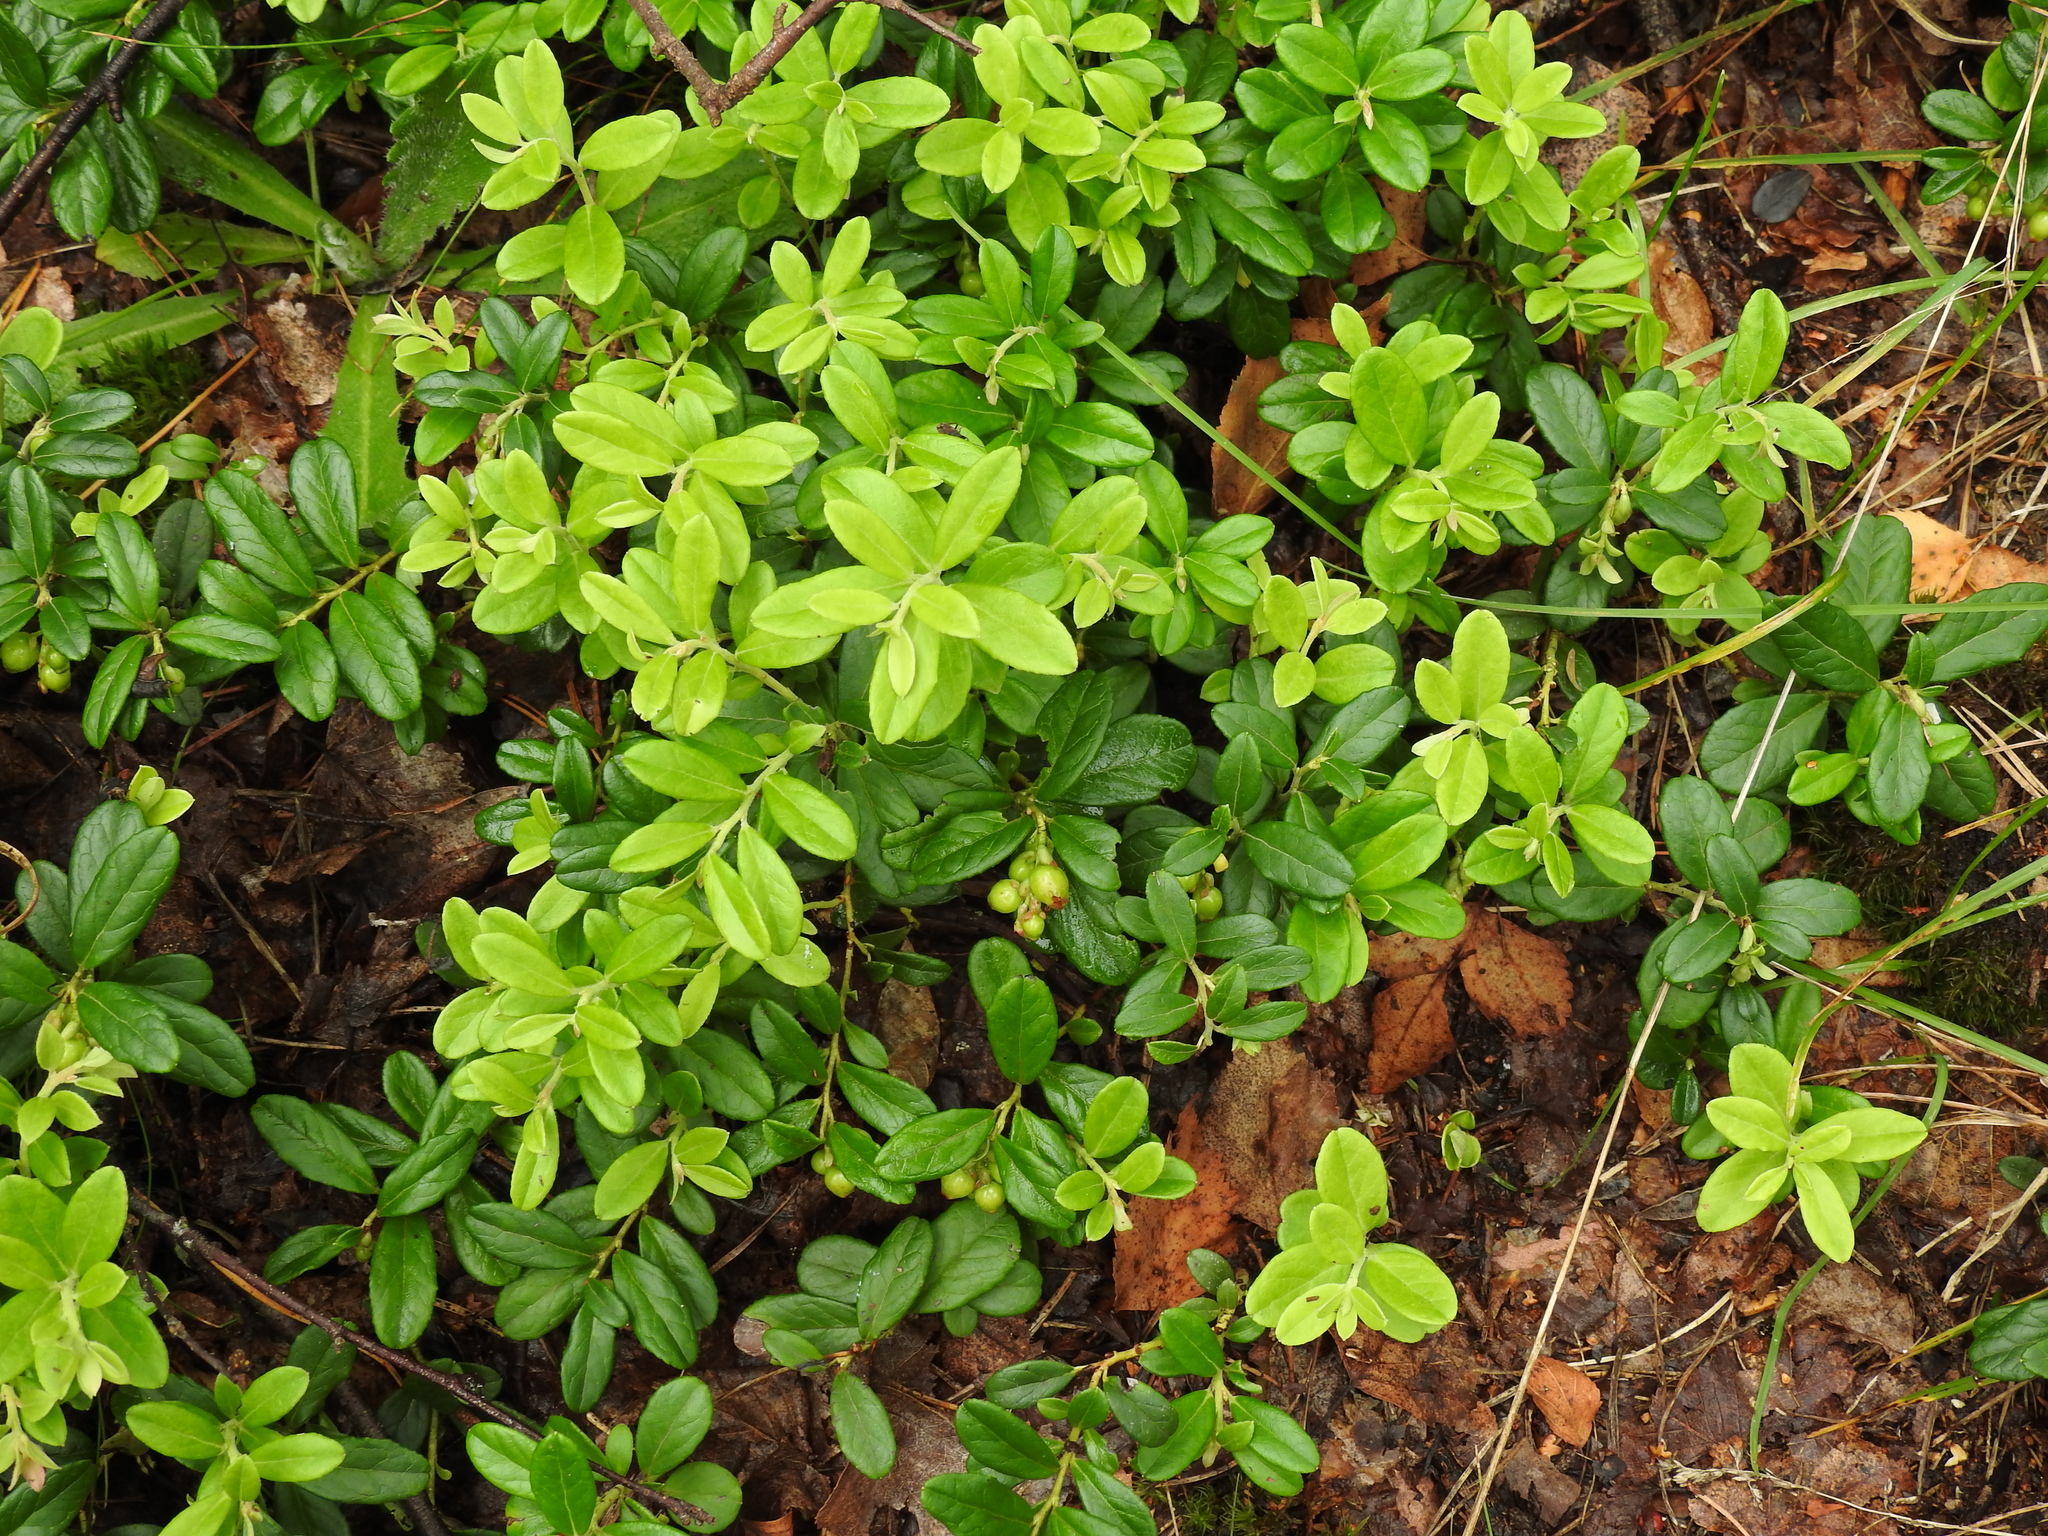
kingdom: Plantae
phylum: Tracheophyta
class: Magnoliopsida
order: Ericales
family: Ericaceae
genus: Vaccinium
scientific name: Vaccinium vitis-idaea
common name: Cowberry
